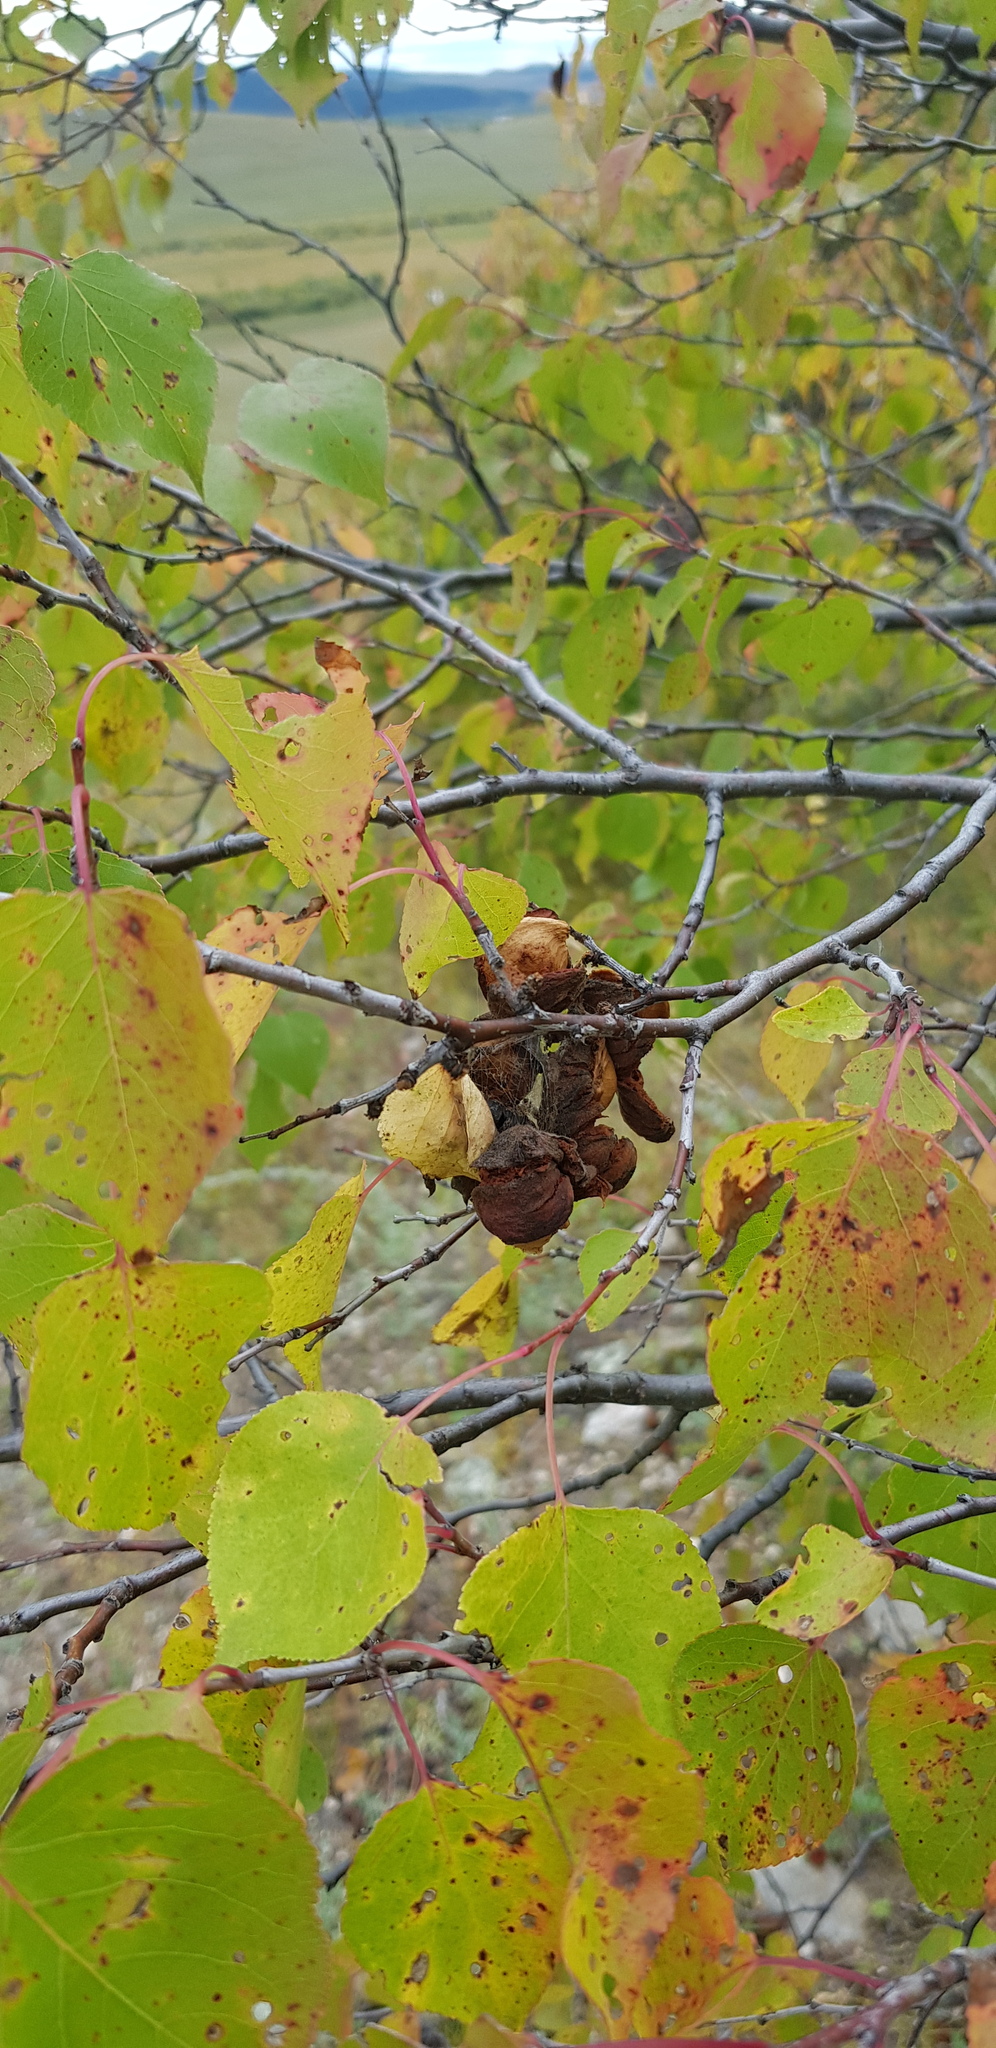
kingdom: Plantae
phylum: Tracheophyta
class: Magnoliopsida
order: Rosales
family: Rosaceae
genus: Prunus
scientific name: Prunus sibirica
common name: Siberian apricot
